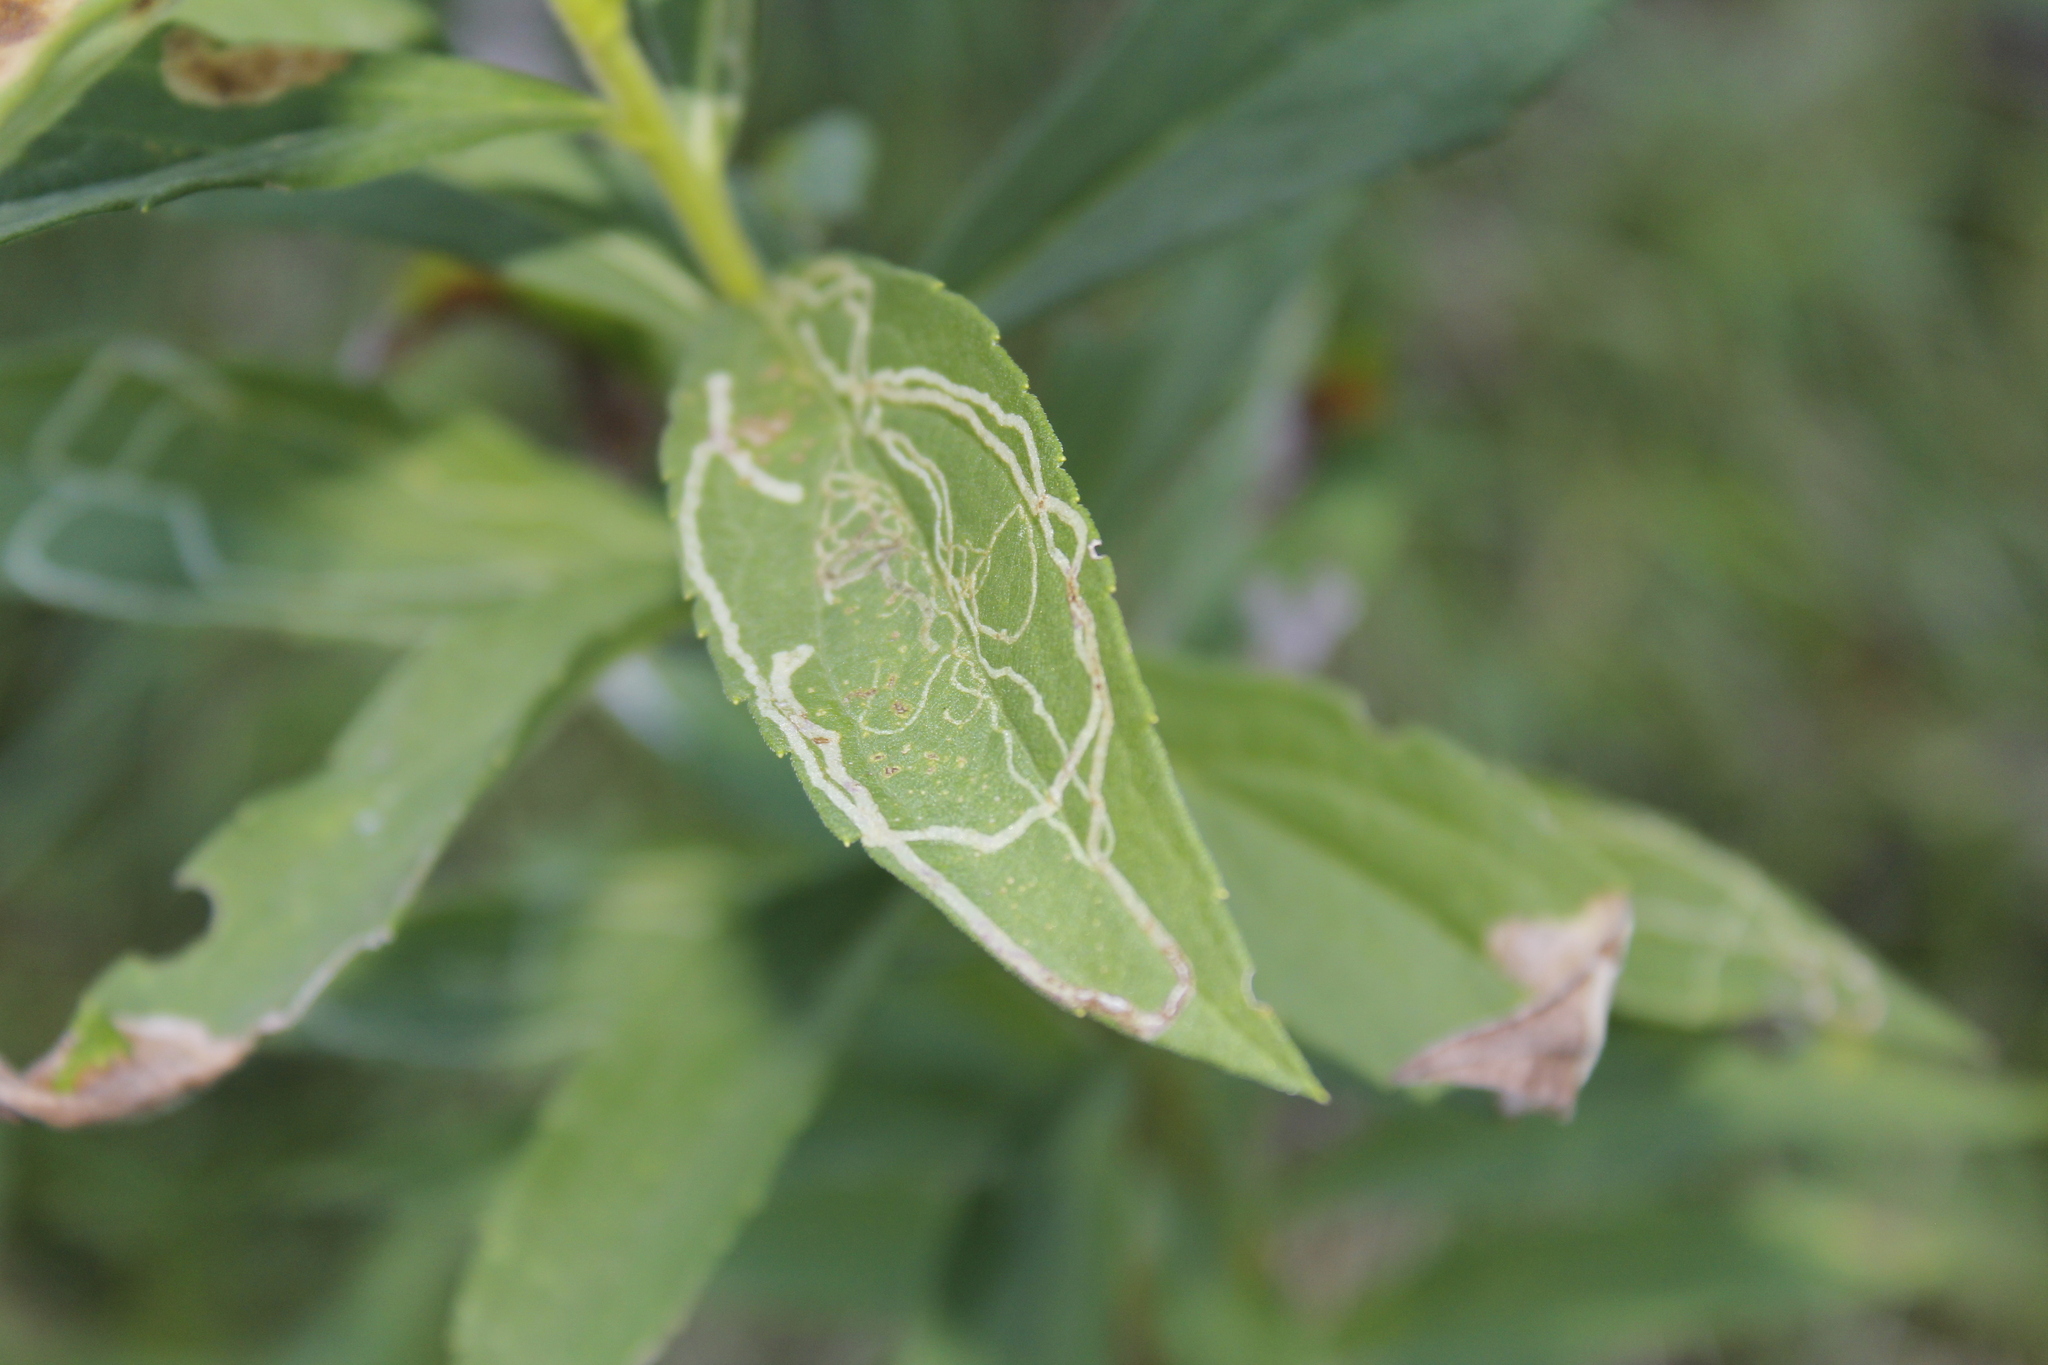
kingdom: Animalia
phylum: Arthropoda
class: Insecta
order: Diptera
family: Agromyzidae
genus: Ophiomyia
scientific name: Ophiomyia maura
